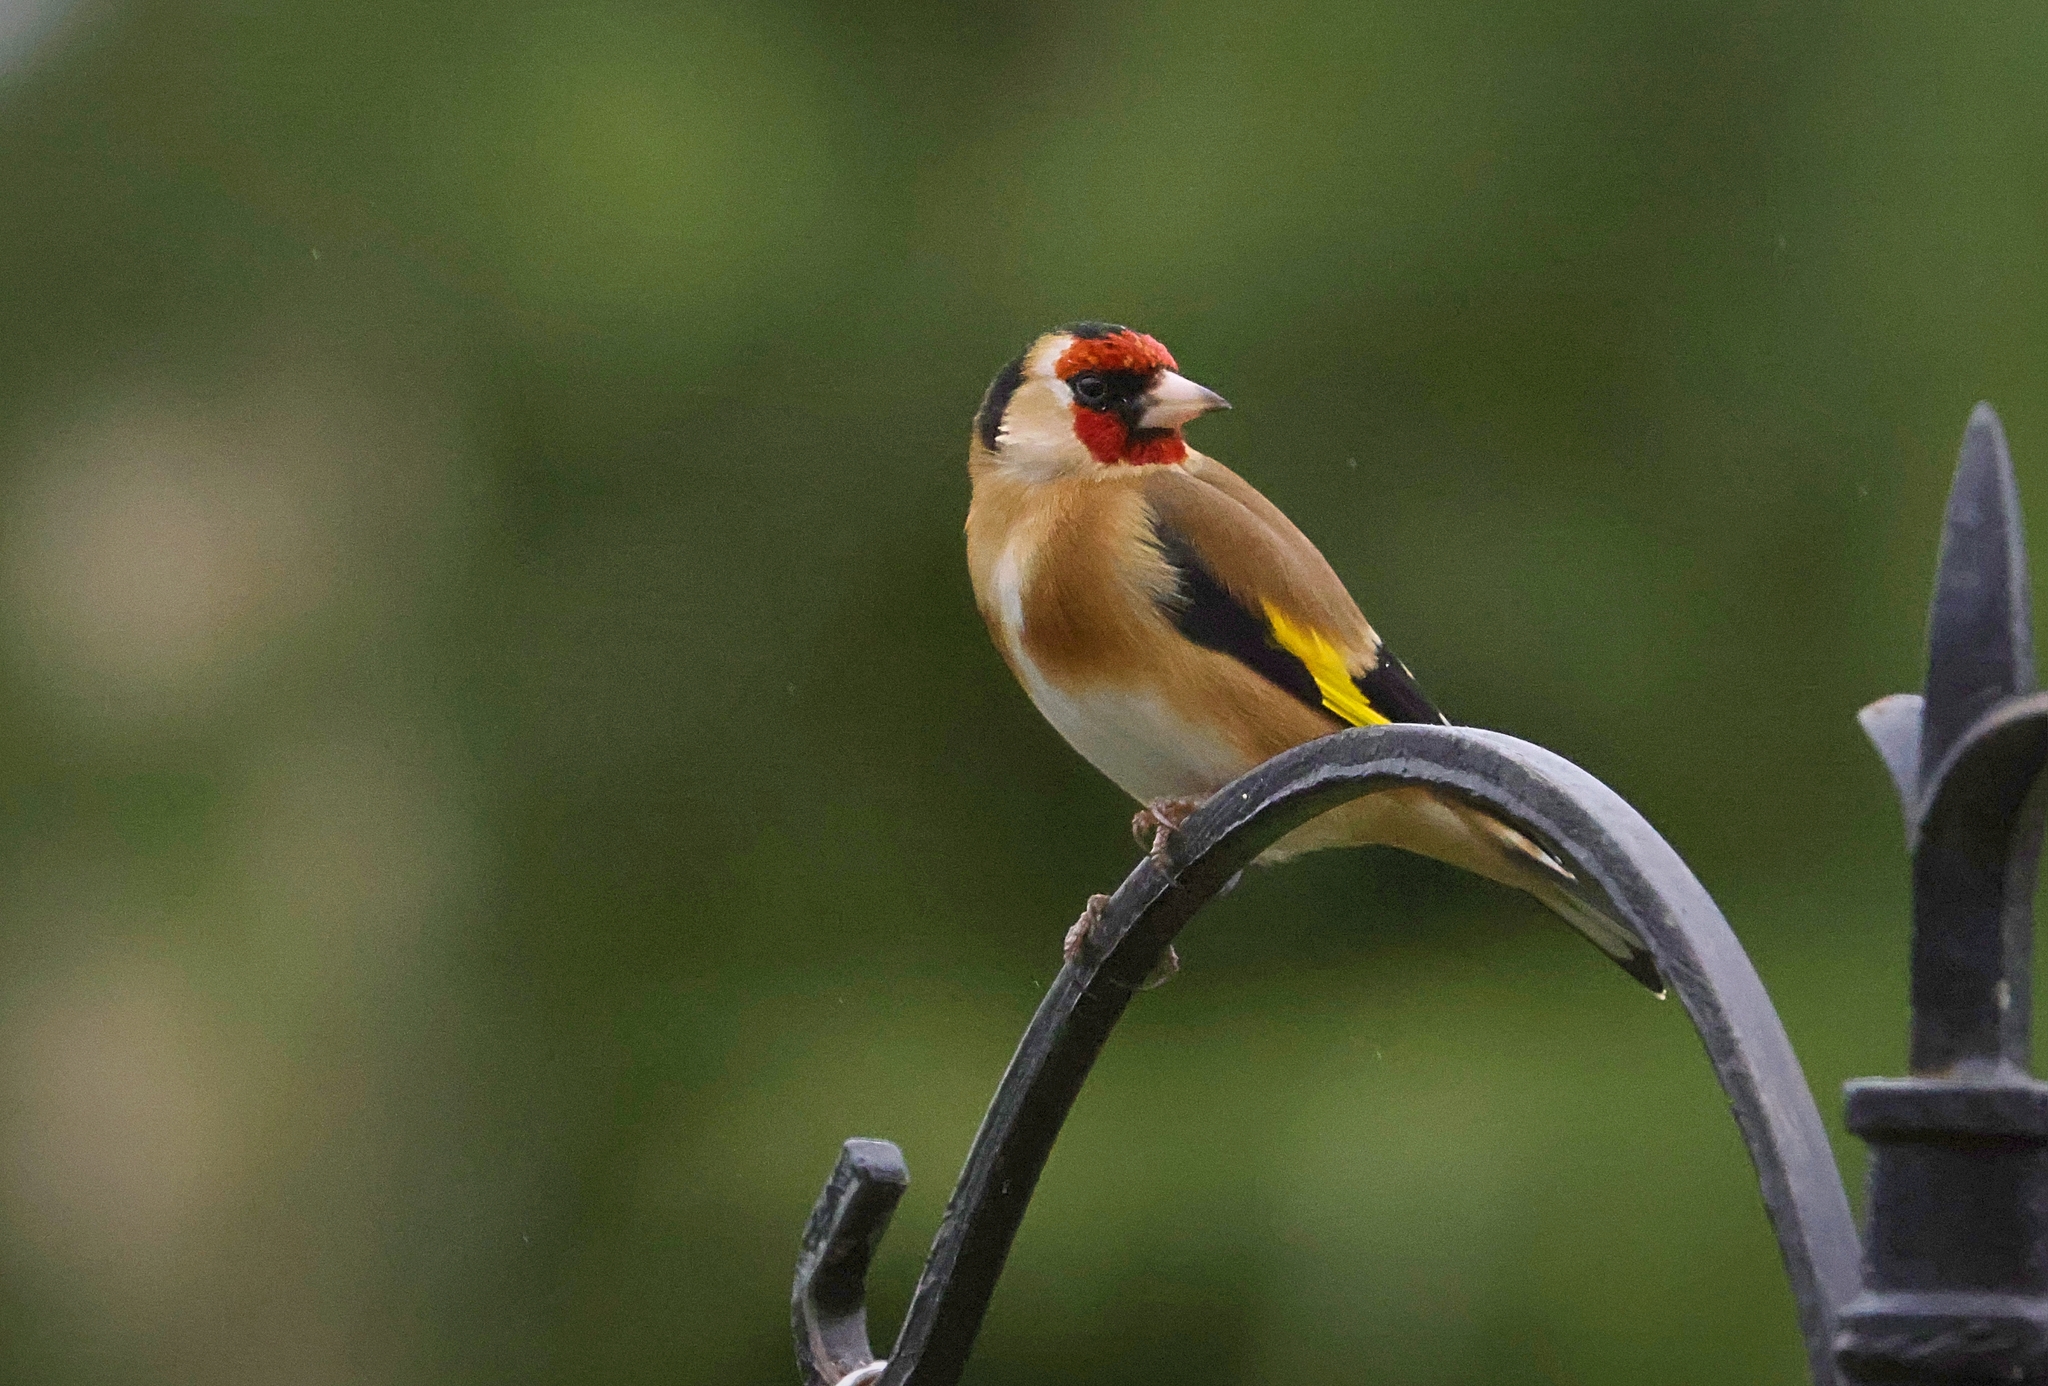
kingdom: Animalia
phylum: Chordata
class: Aves
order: Passeriformes
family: Fringillidae
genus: Carduelis
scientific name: Carduelis carduelis
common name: European goldfinch
